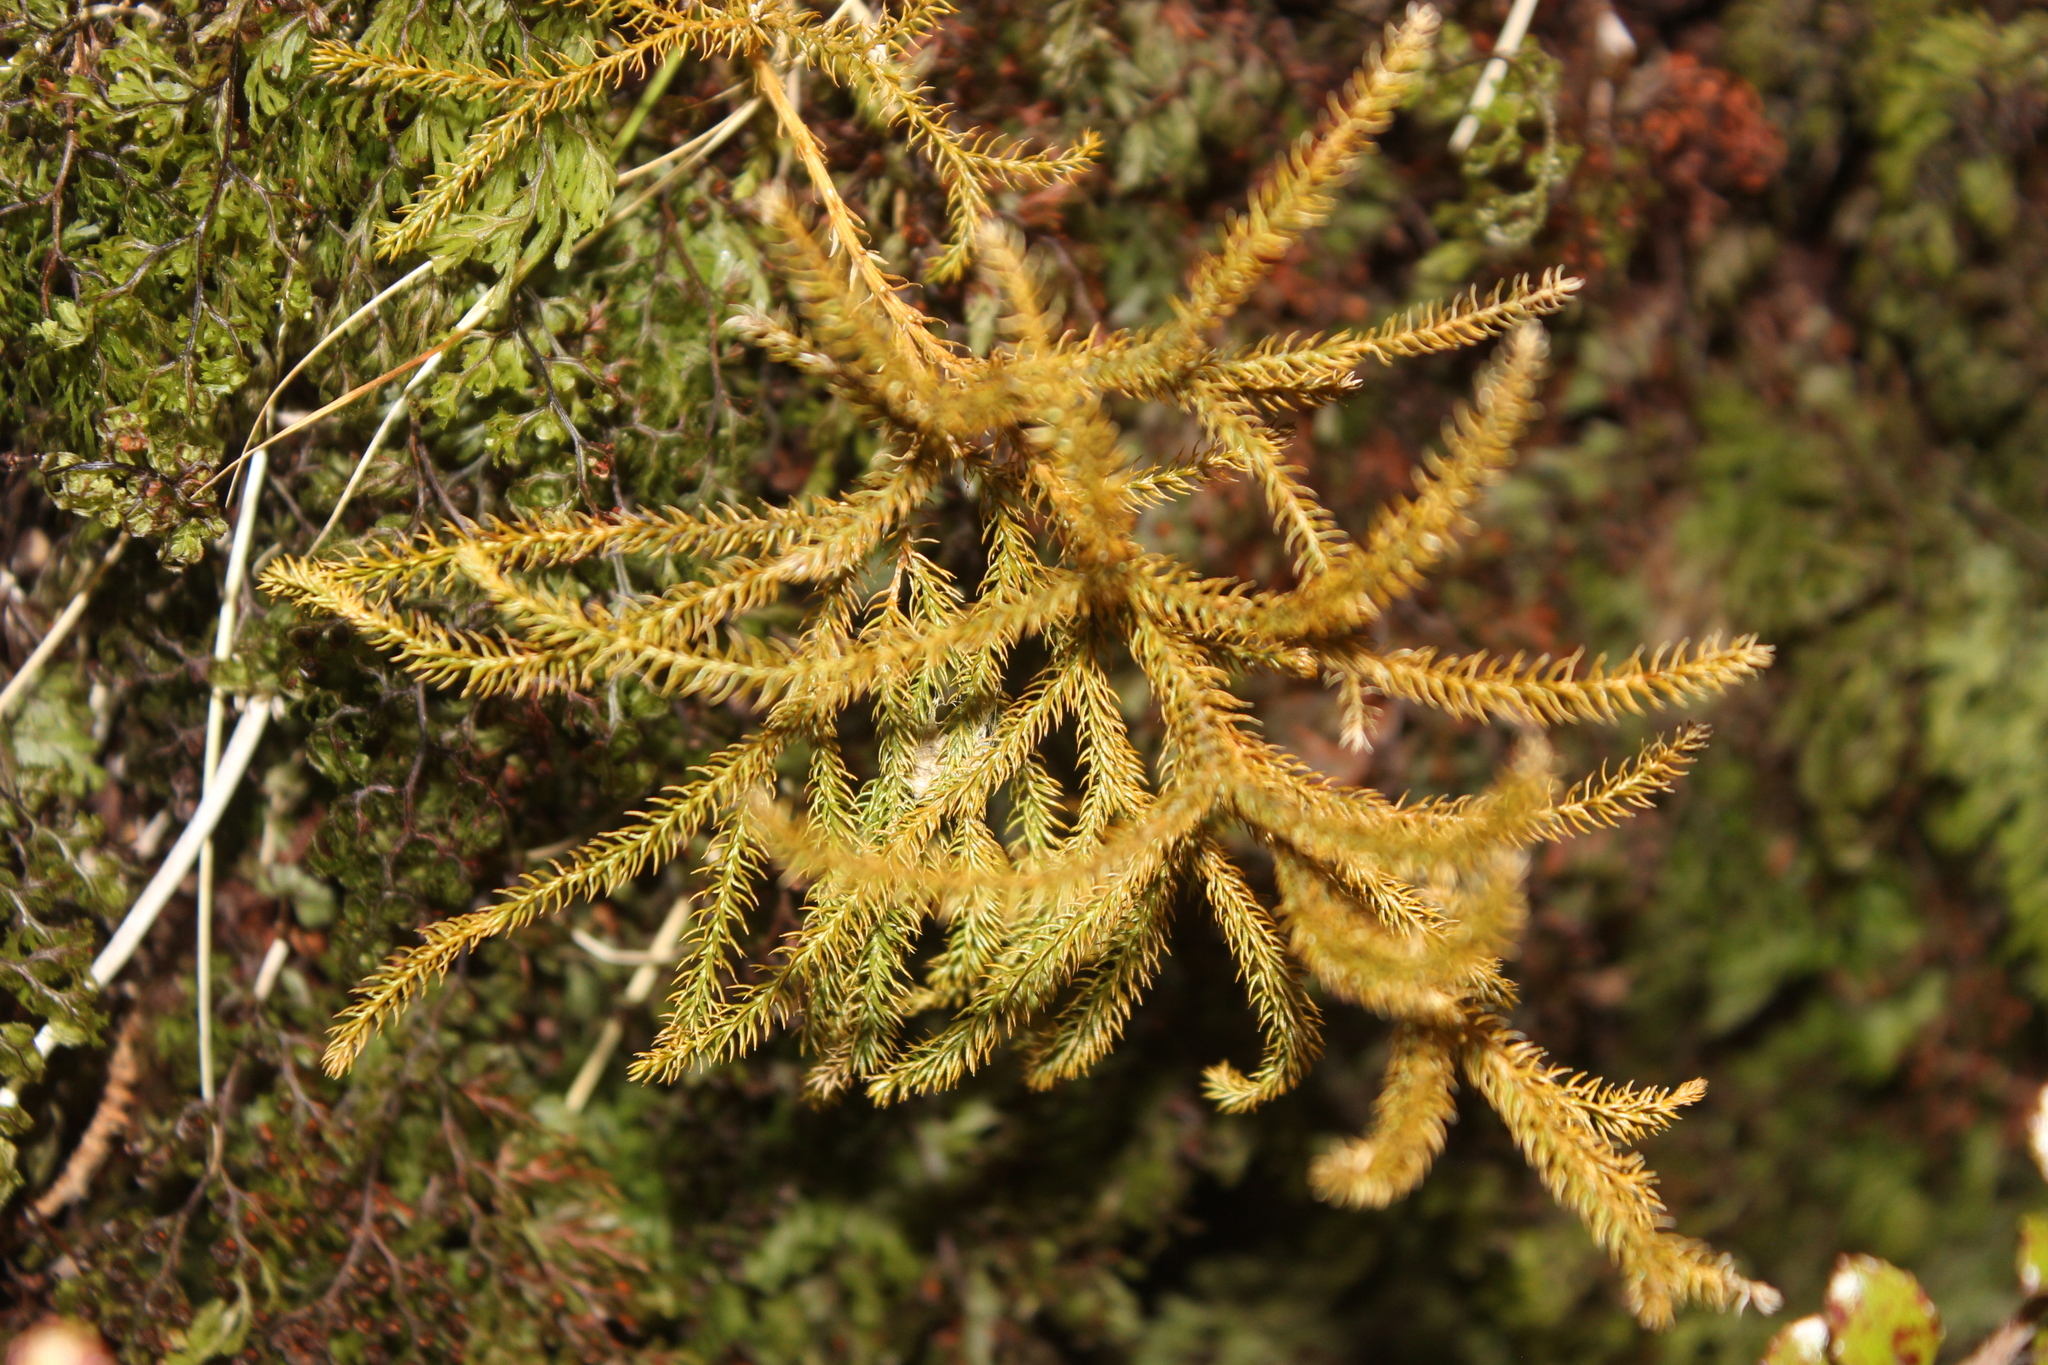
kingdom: Plantae
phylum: Tracheophyta
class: Lycopodiopsida
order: Lycopodiales
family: Lycopodiaceae
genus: Austrolycopodium
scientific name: Austrolycopodium fastigiatum
